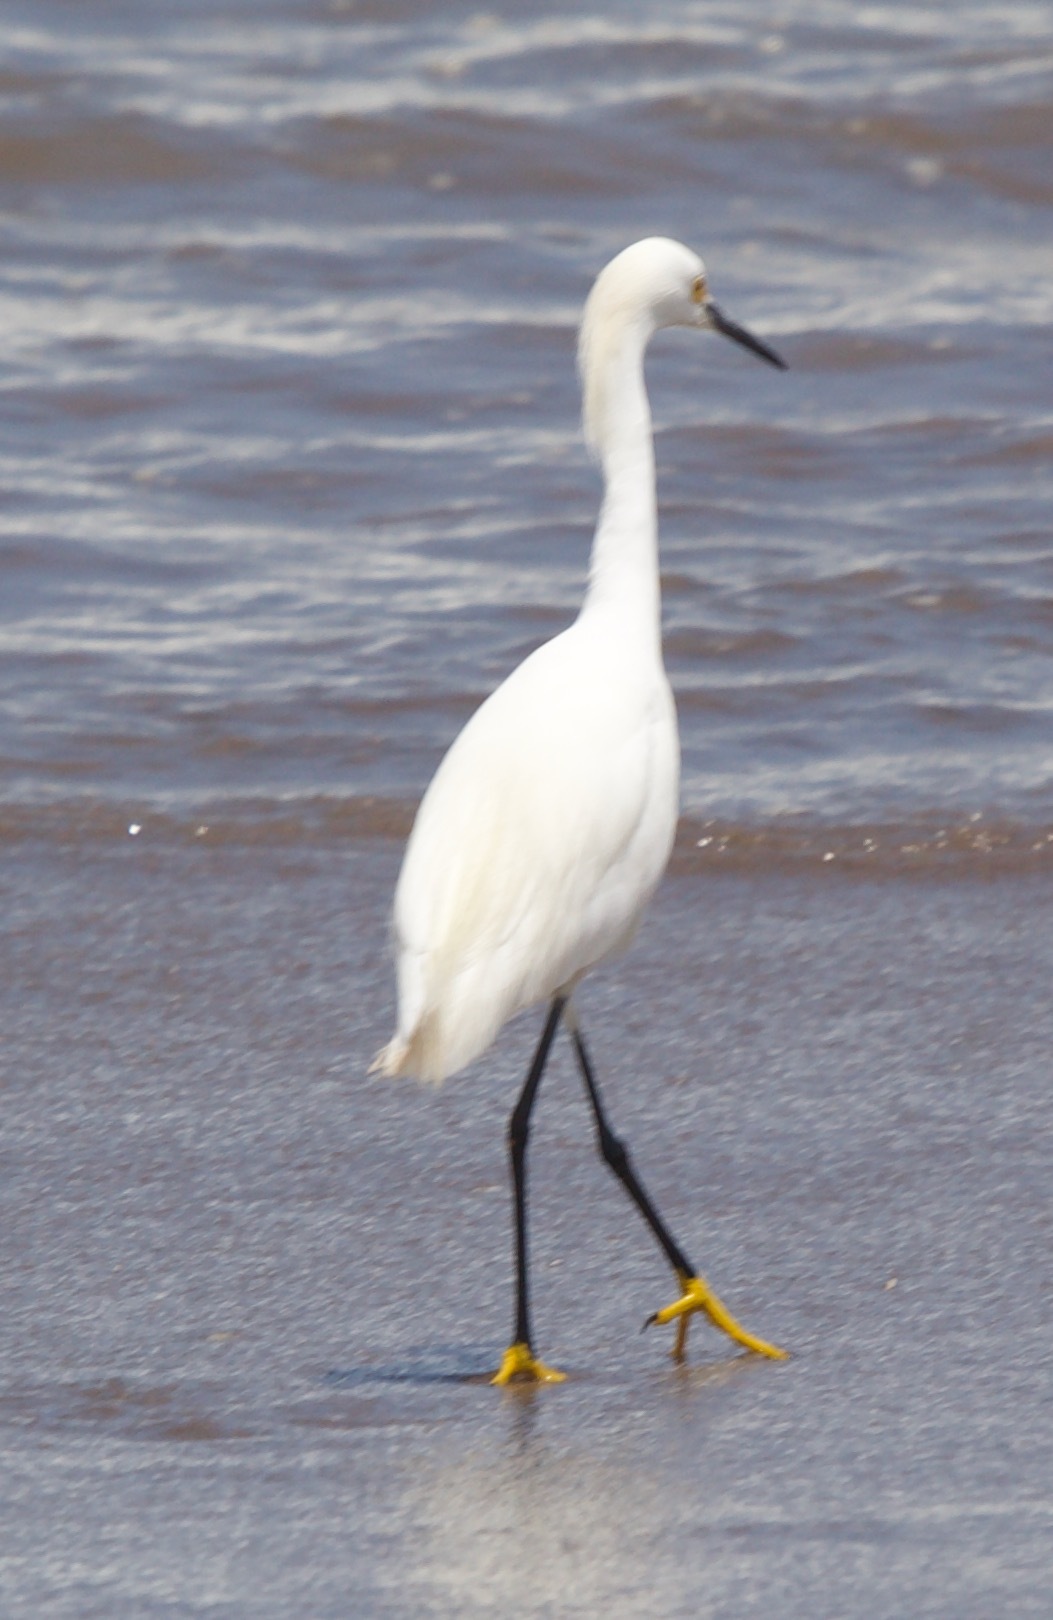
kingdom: Animalia
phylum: Chordata
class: Aves
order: Pelecaniformes
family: Ardeidae
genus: Egretta
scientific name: Egretta thula
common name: Snowy egret
